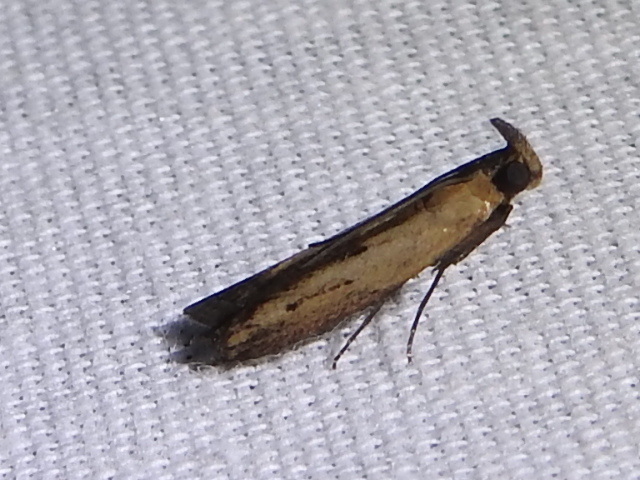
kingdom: Animalia
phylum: Arthropoda
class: Insecta
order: Lepidoptera
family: Pyralidae
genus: Elasmopalpus
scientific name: Elasmopalpus lignosella
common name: Lesser cornstalk borer
